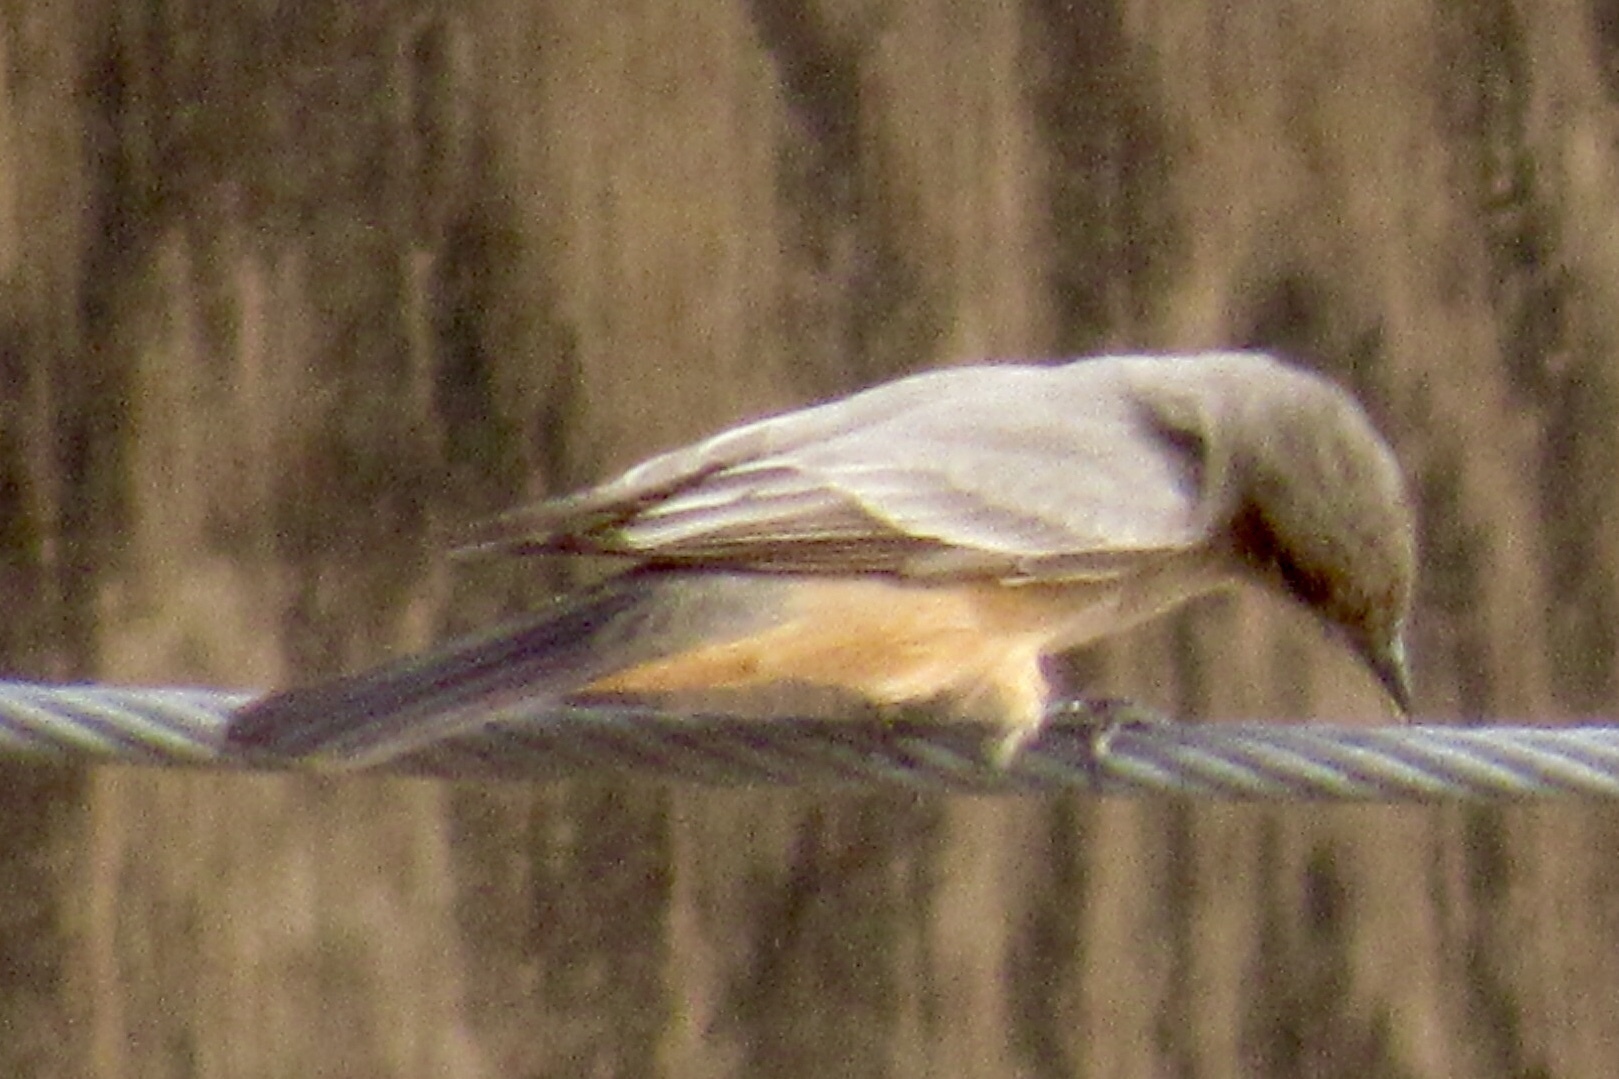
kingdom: Animalia
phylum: Chordata
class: Aves
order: Passeriformes
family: Tyrannidae
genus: Sayornis
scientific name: Sayornis saya
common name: Say's phoebe
